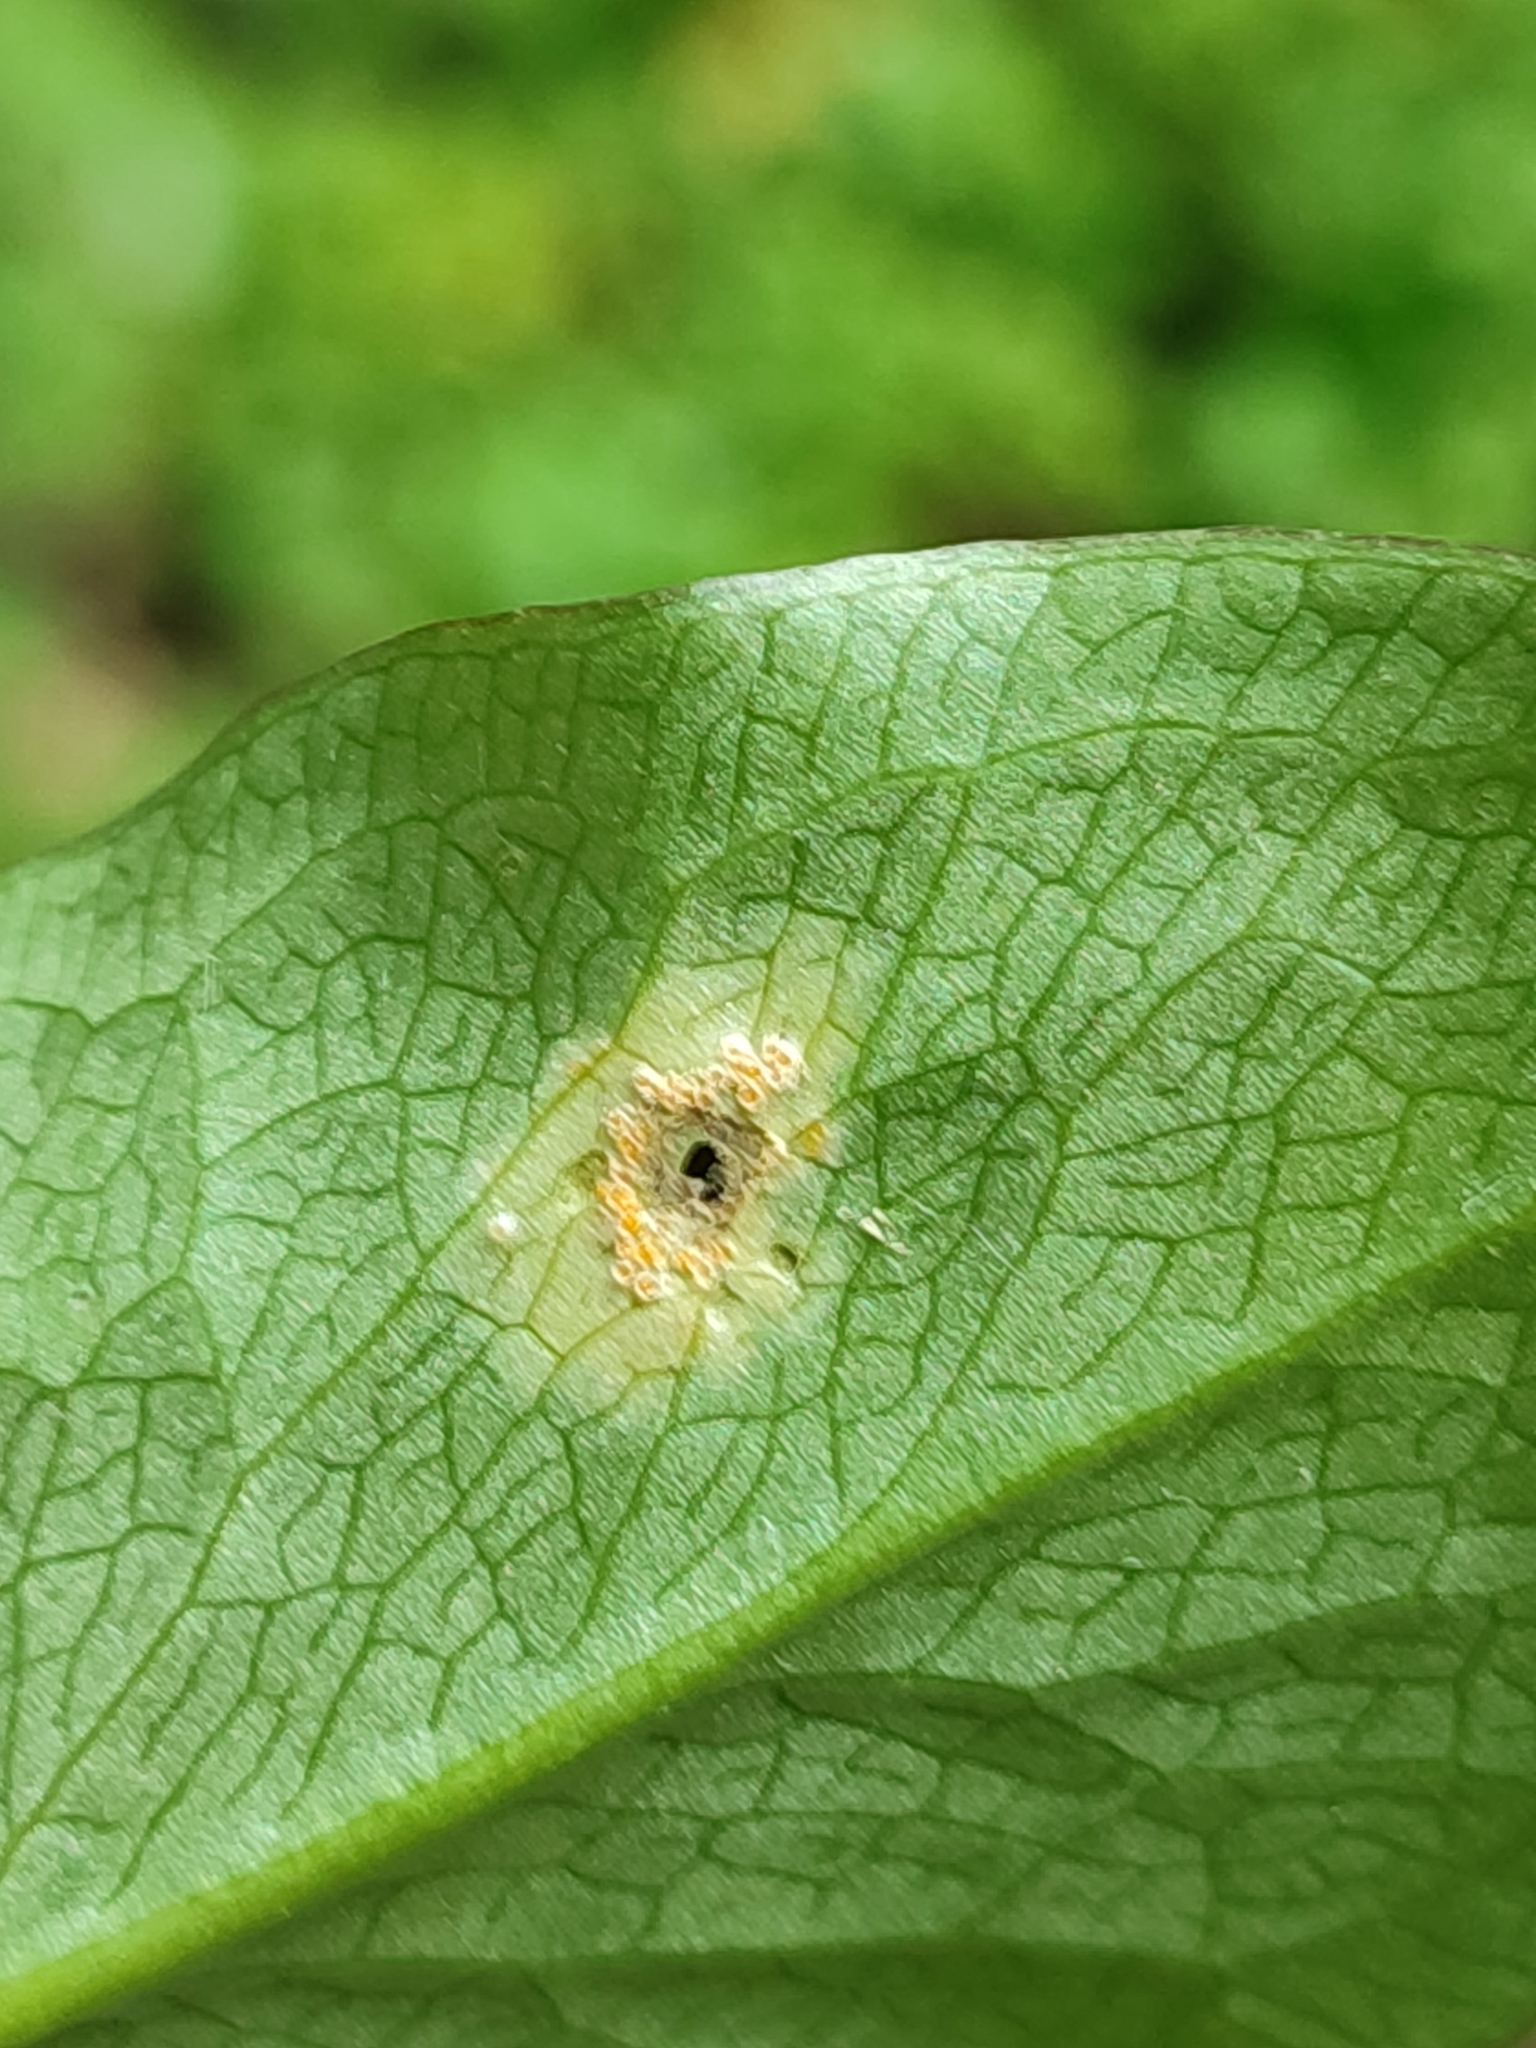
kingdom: Fungi
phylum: Basidiomycota
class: Pucciniomycetes
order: Pucciniales
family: Pucciniaceae
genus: Puccinia
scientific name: Puccinia sessilis
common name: Arum rust
